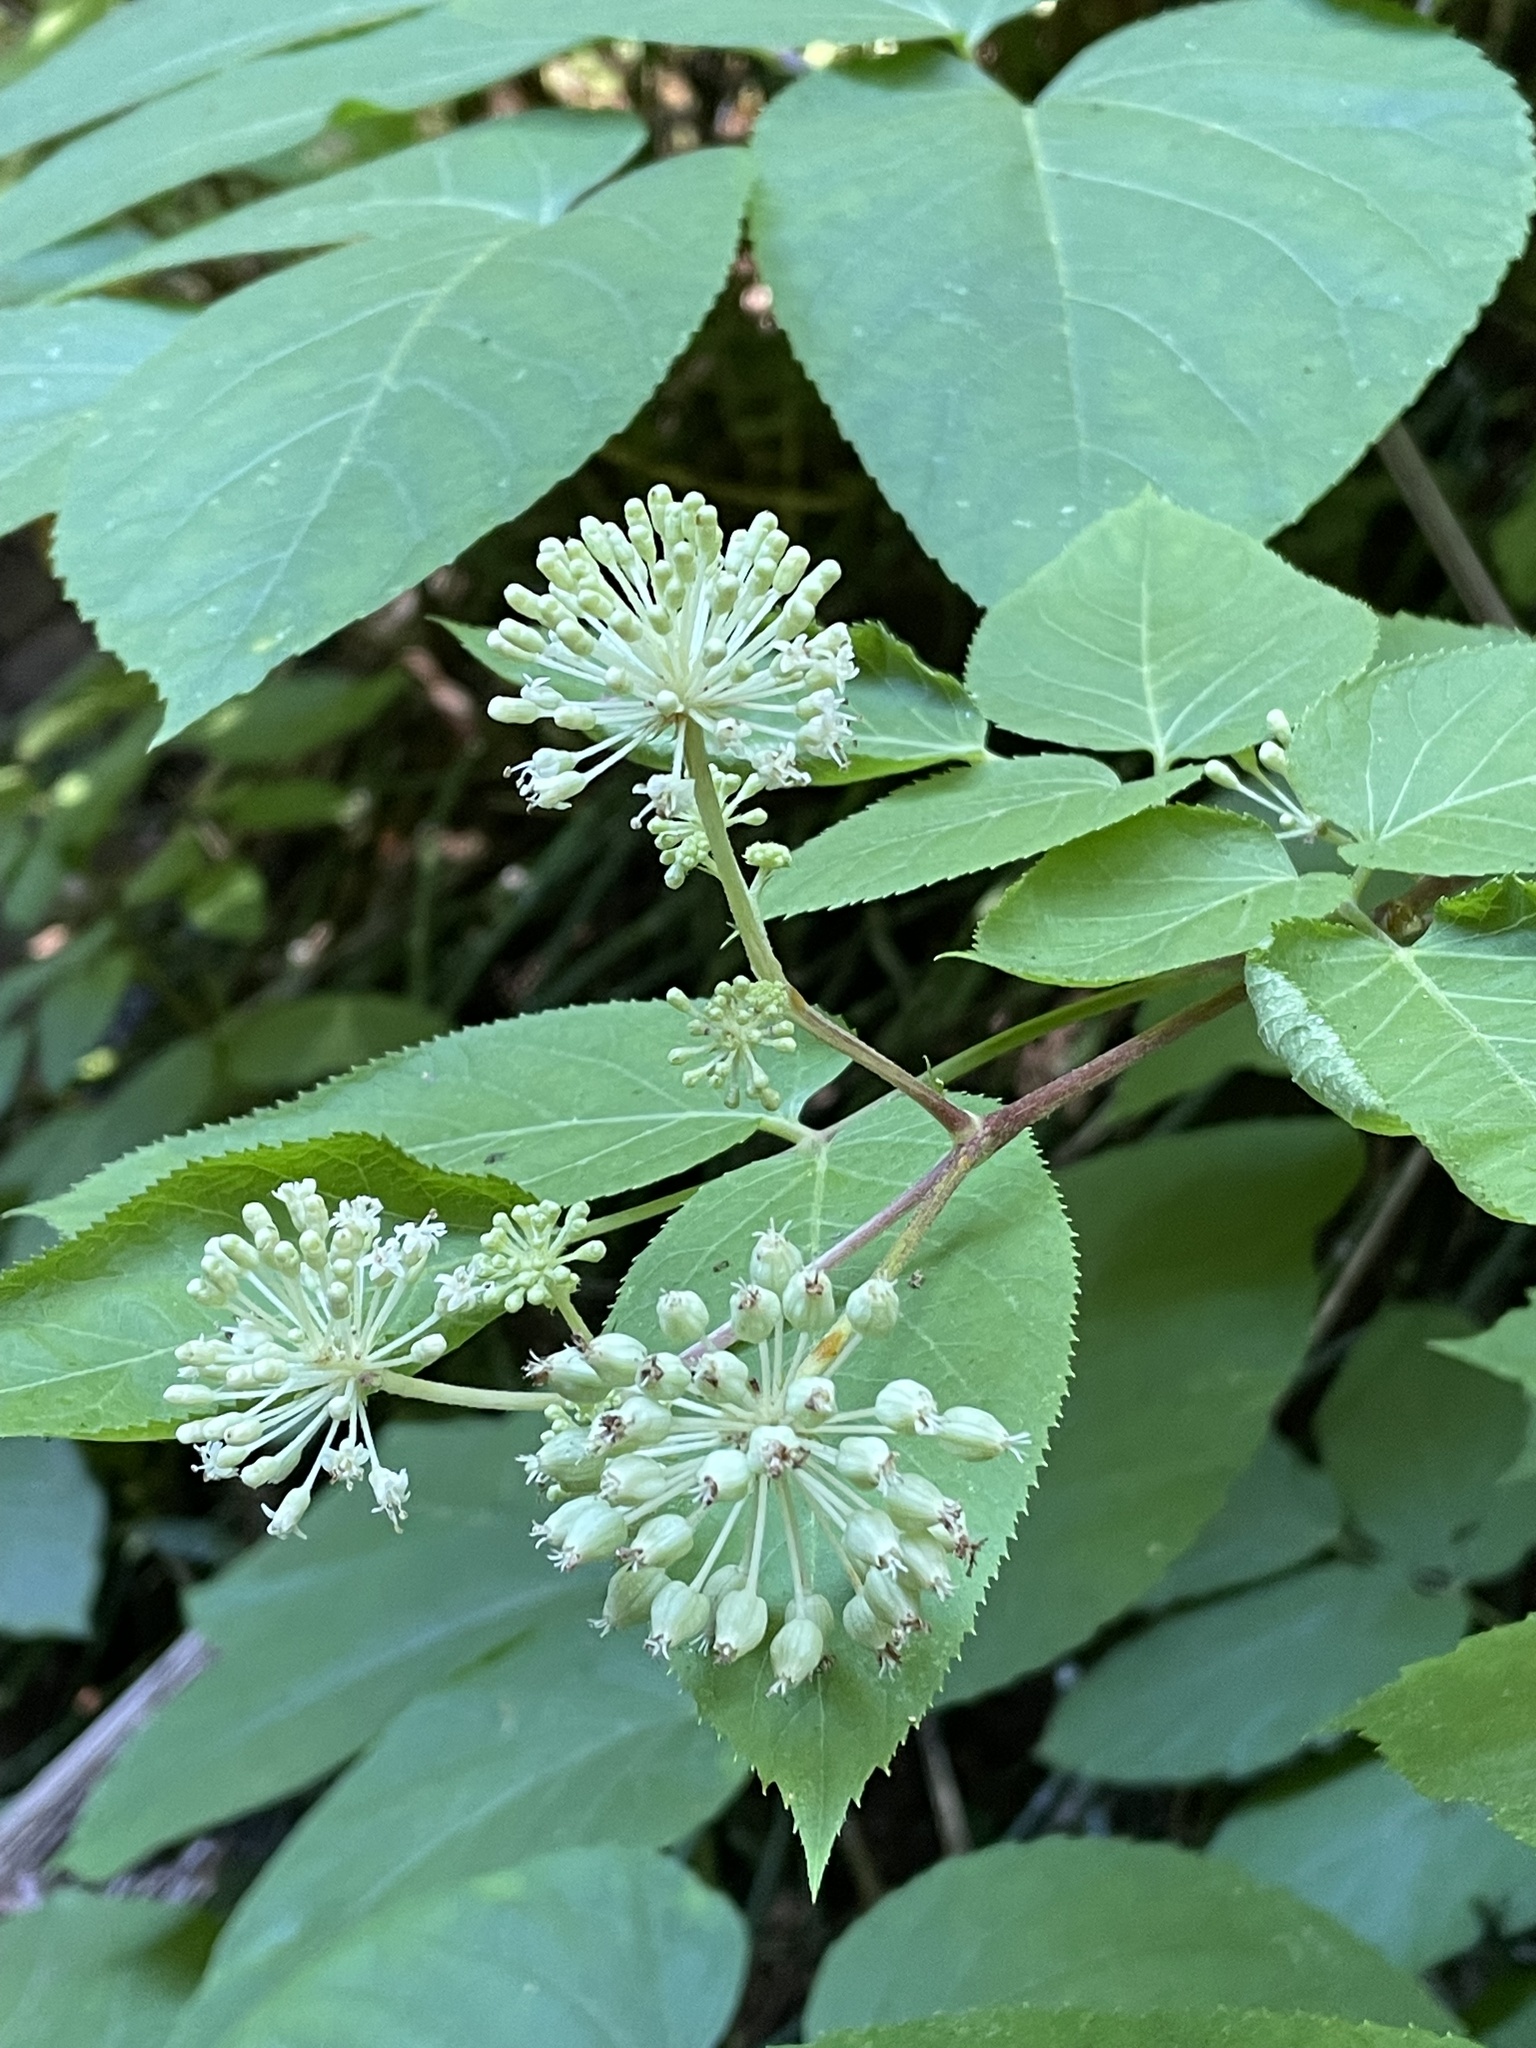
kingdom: Plantae
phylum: Tracheophyta
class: Magnoliopsida
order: Apiales
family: Araliaceae
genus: Aralia
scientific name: Aralia californica
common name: California-ginseng
